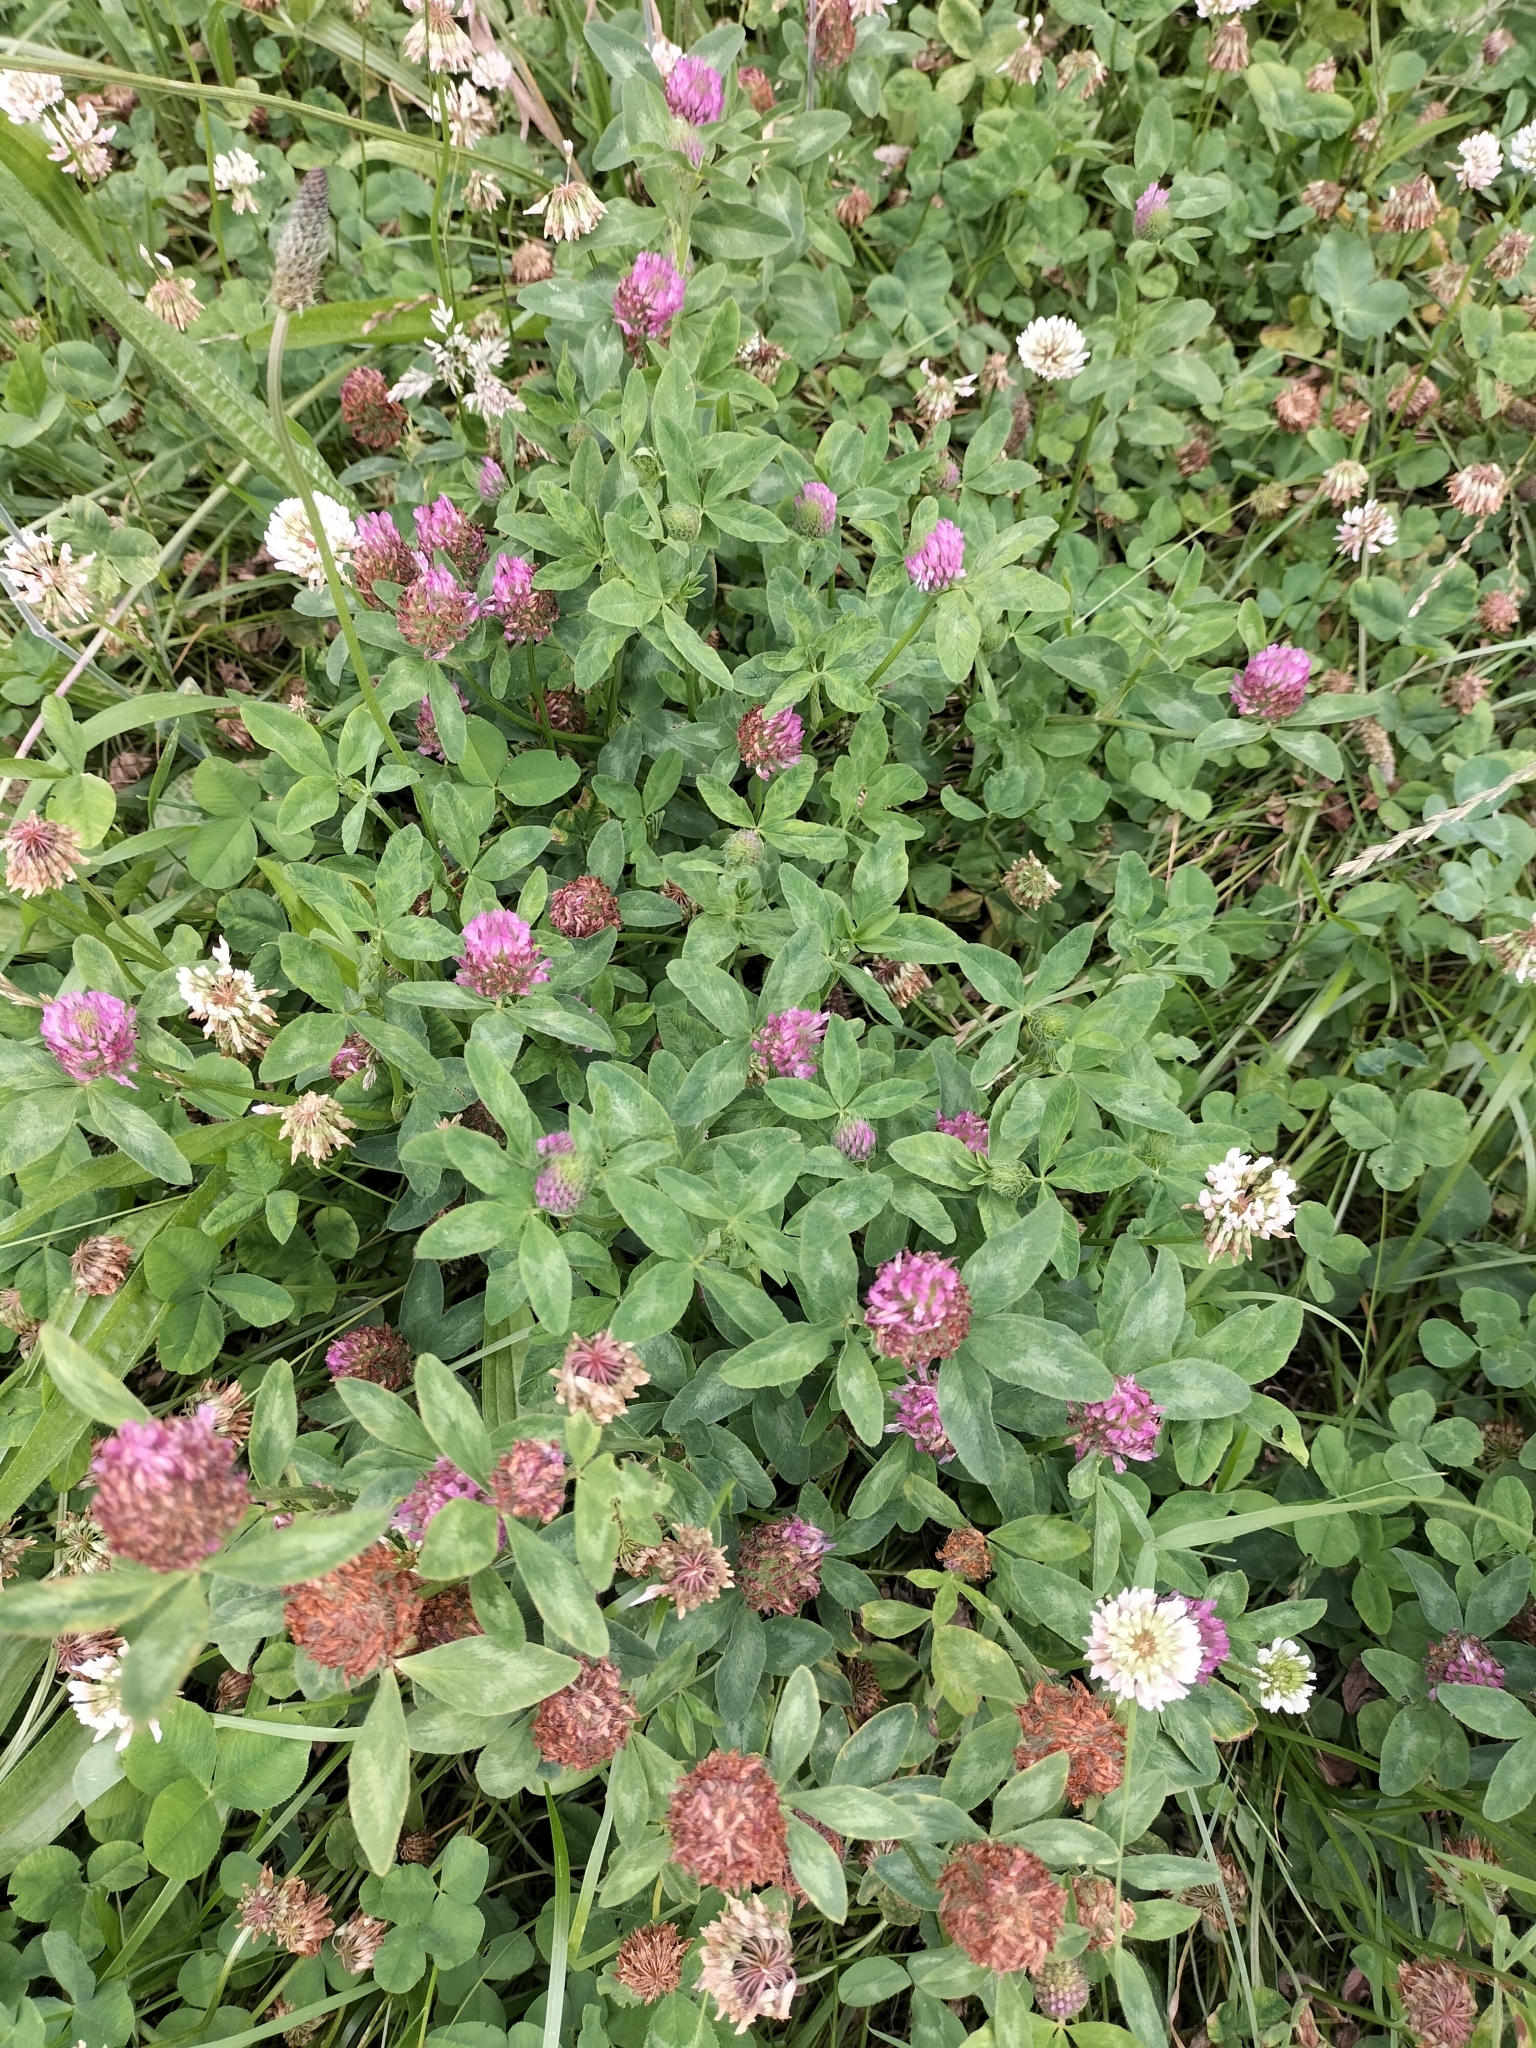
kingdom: Plantae
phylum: Tracheophyta
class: Magnoliopsida
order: Fabales
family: Fabaceae
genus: Trifolium
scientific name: Trifolium pratense
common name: Red clover
